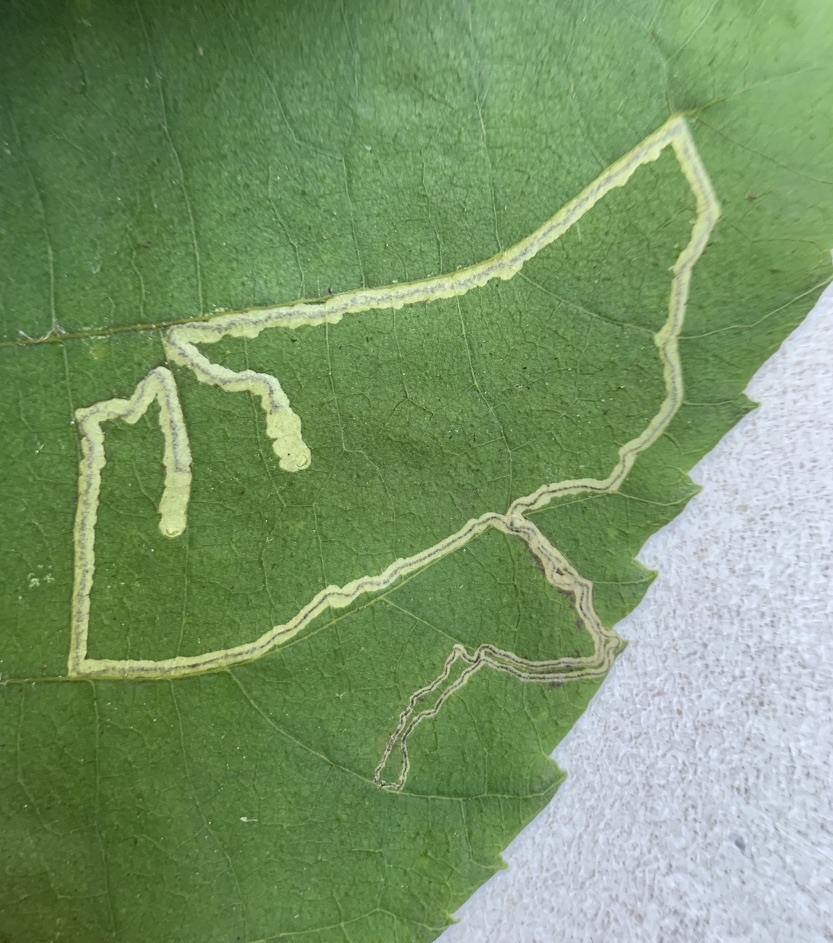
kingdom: Animalia
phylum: Arthropoda
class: Insecta
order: Lepidoptera
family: Nepticulidae
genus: Stigmella
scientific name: Stigmella caryaefoliella
